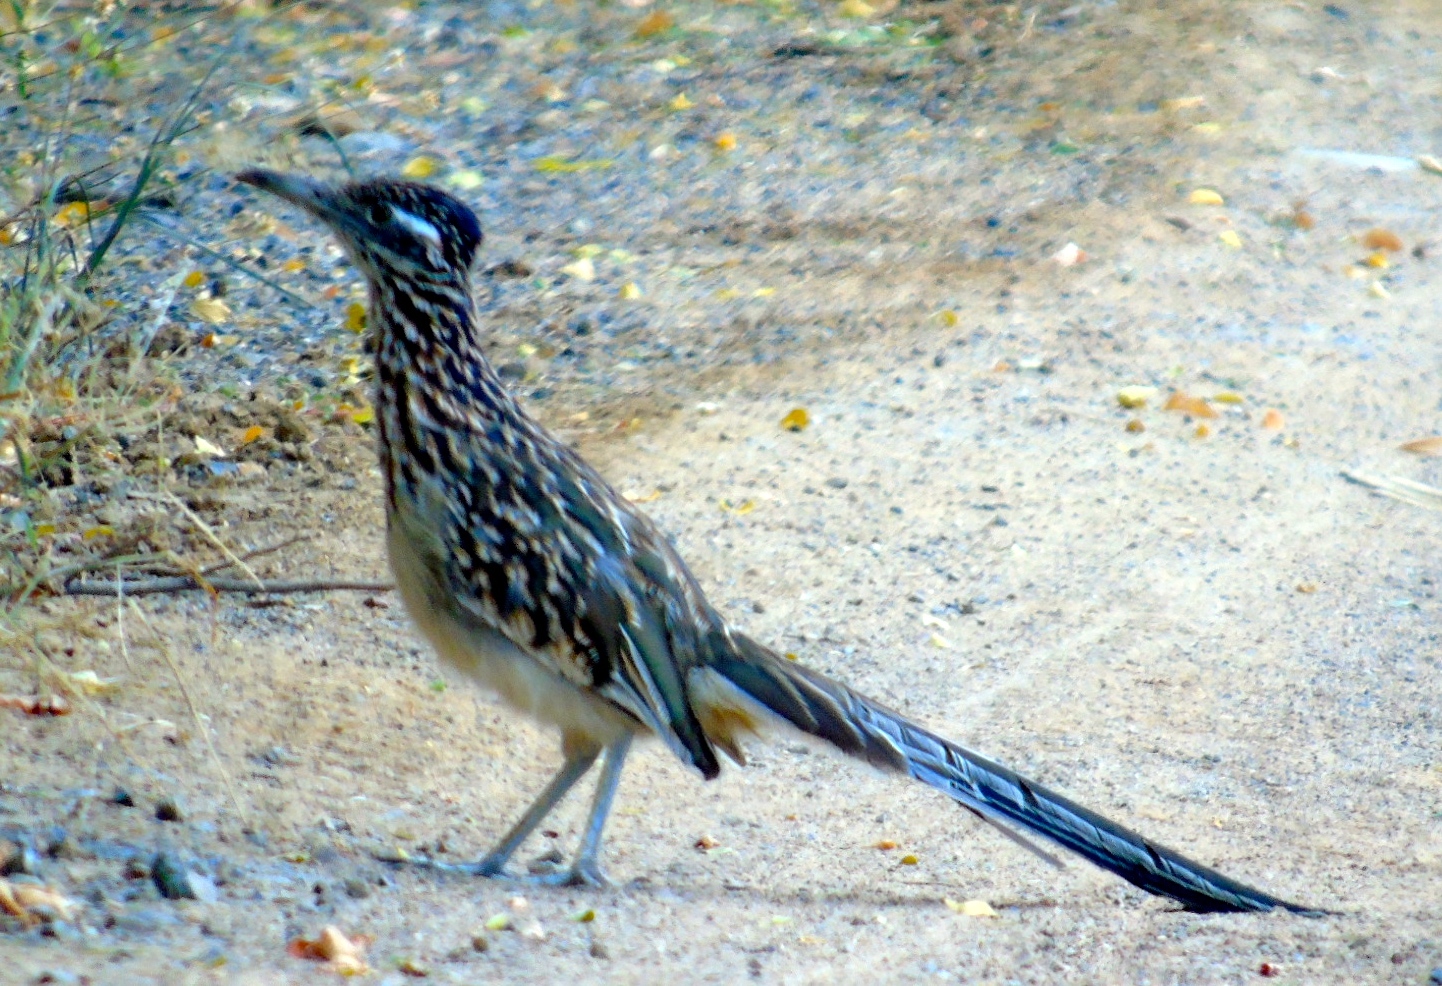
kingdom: Animalia
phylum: Chordata
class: Aves
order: Cuculiformes
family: Cuculidae
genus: Geococcyx
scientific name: Geococcyx californianus
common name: Greater roadrunner
